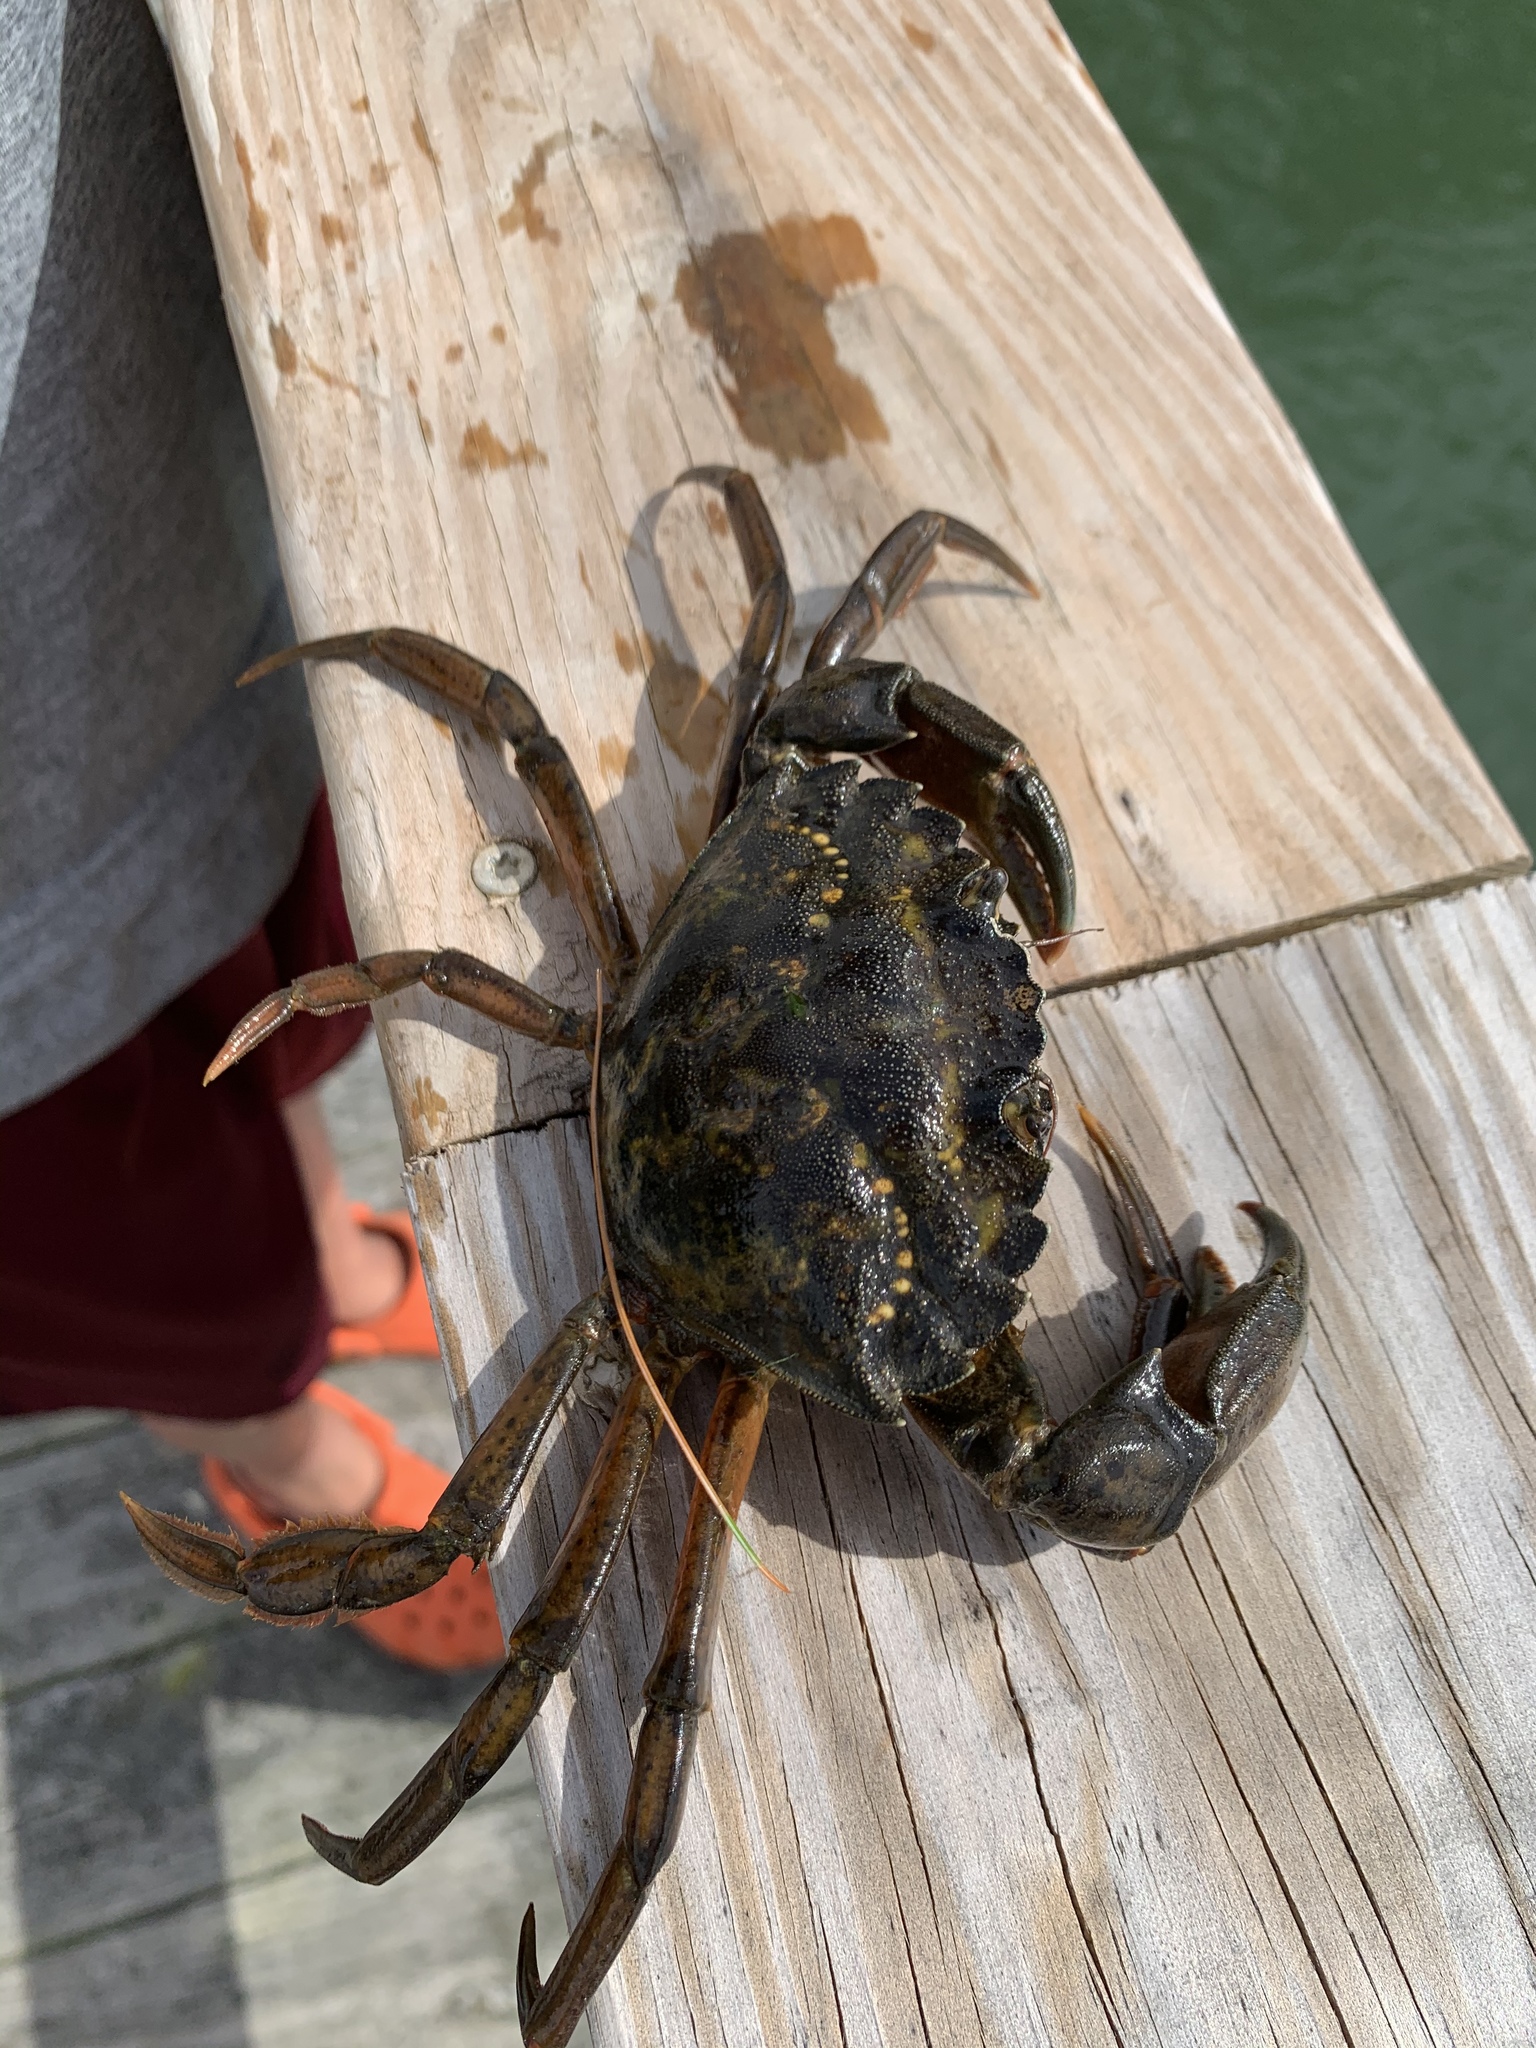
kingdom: Animalia
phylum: Arthropoda
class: Malacostraca
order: Decapoda
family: Carcinidae
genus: Carcinus
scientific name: Carcinus maenas
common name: European green crab
